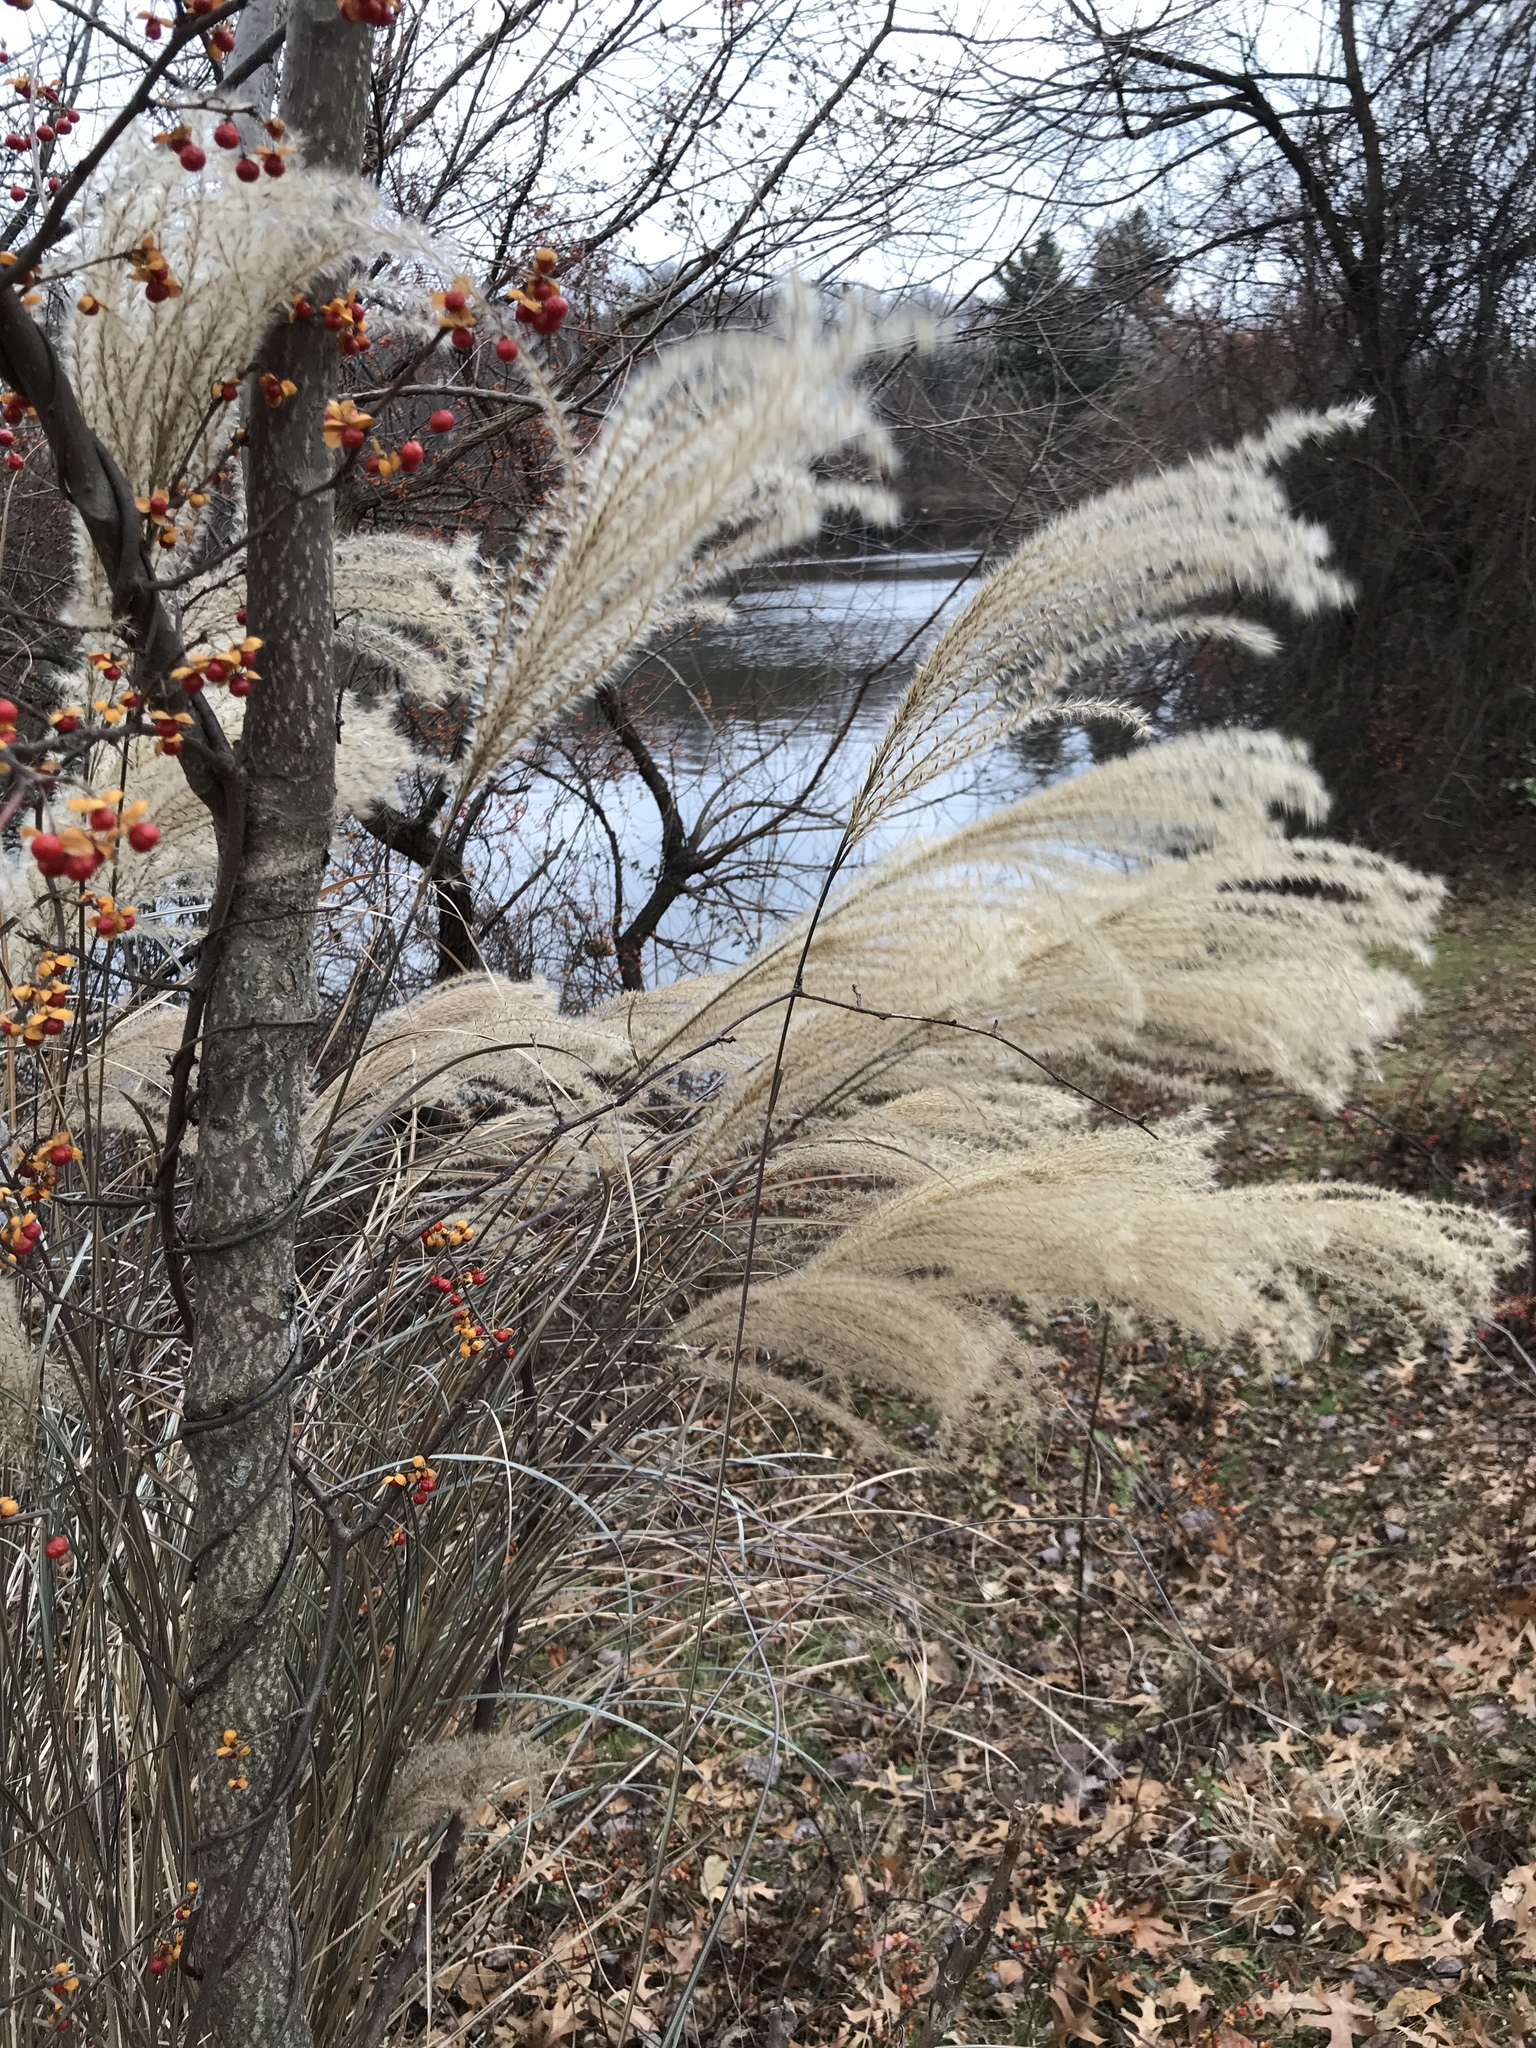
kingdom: Plantae
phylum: Tracheophyta
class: Liliopsida
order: Poales
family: Poaceae
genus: Miscanthus
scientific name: Miscanthus sinensis
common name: Chinese silvergrass
